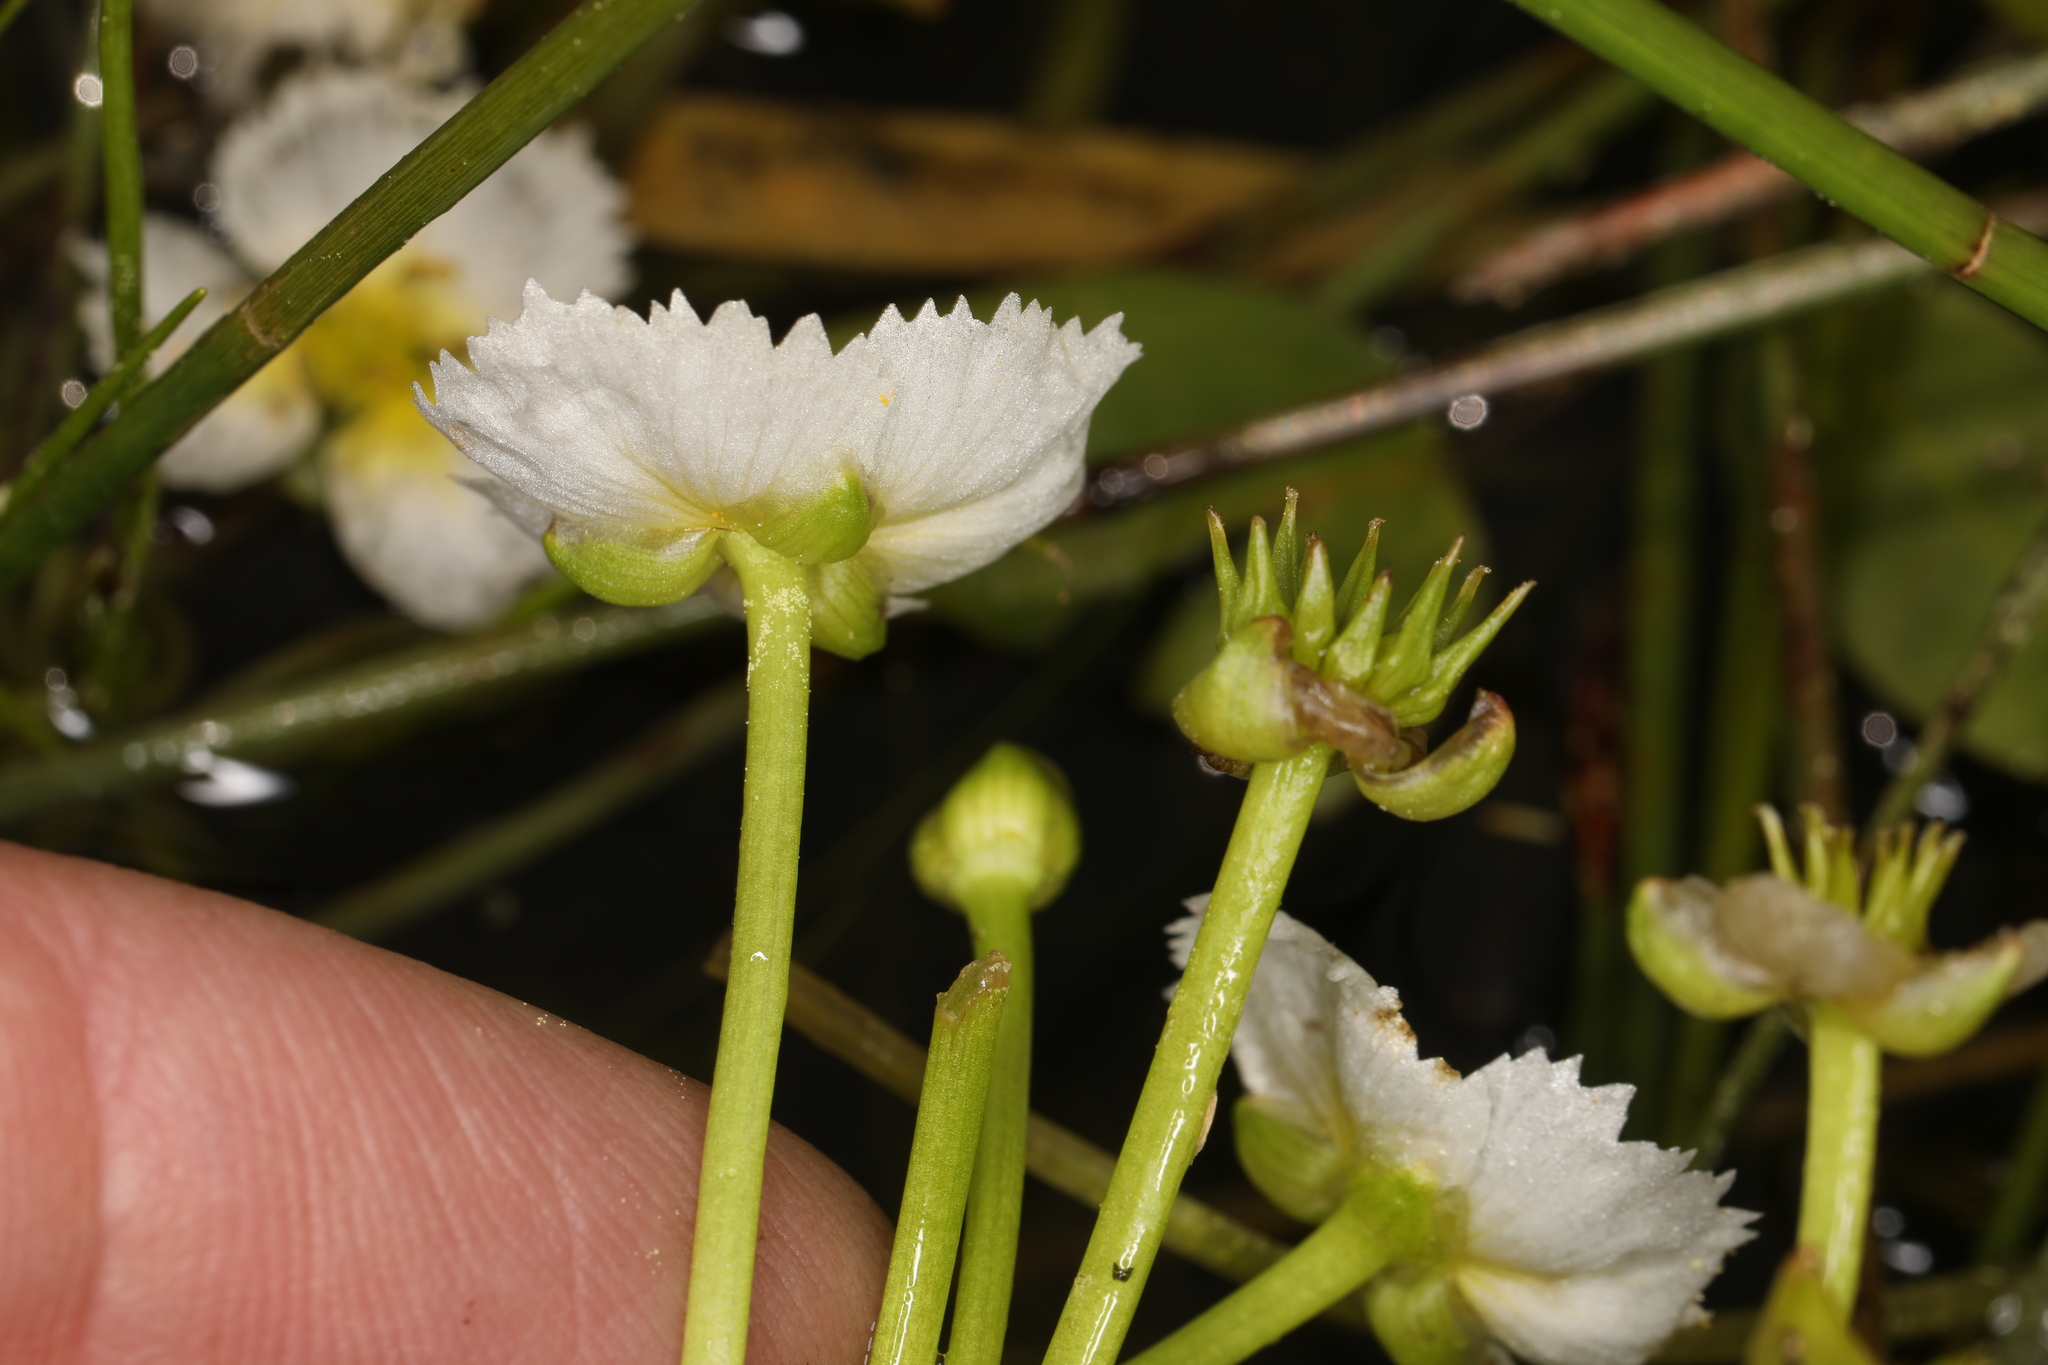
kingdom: Plantae
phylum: Tracheophyta
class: Liliopsida
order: Alismatales
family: Alismataceae
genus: Damasonium
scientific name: Damasonium californicum
